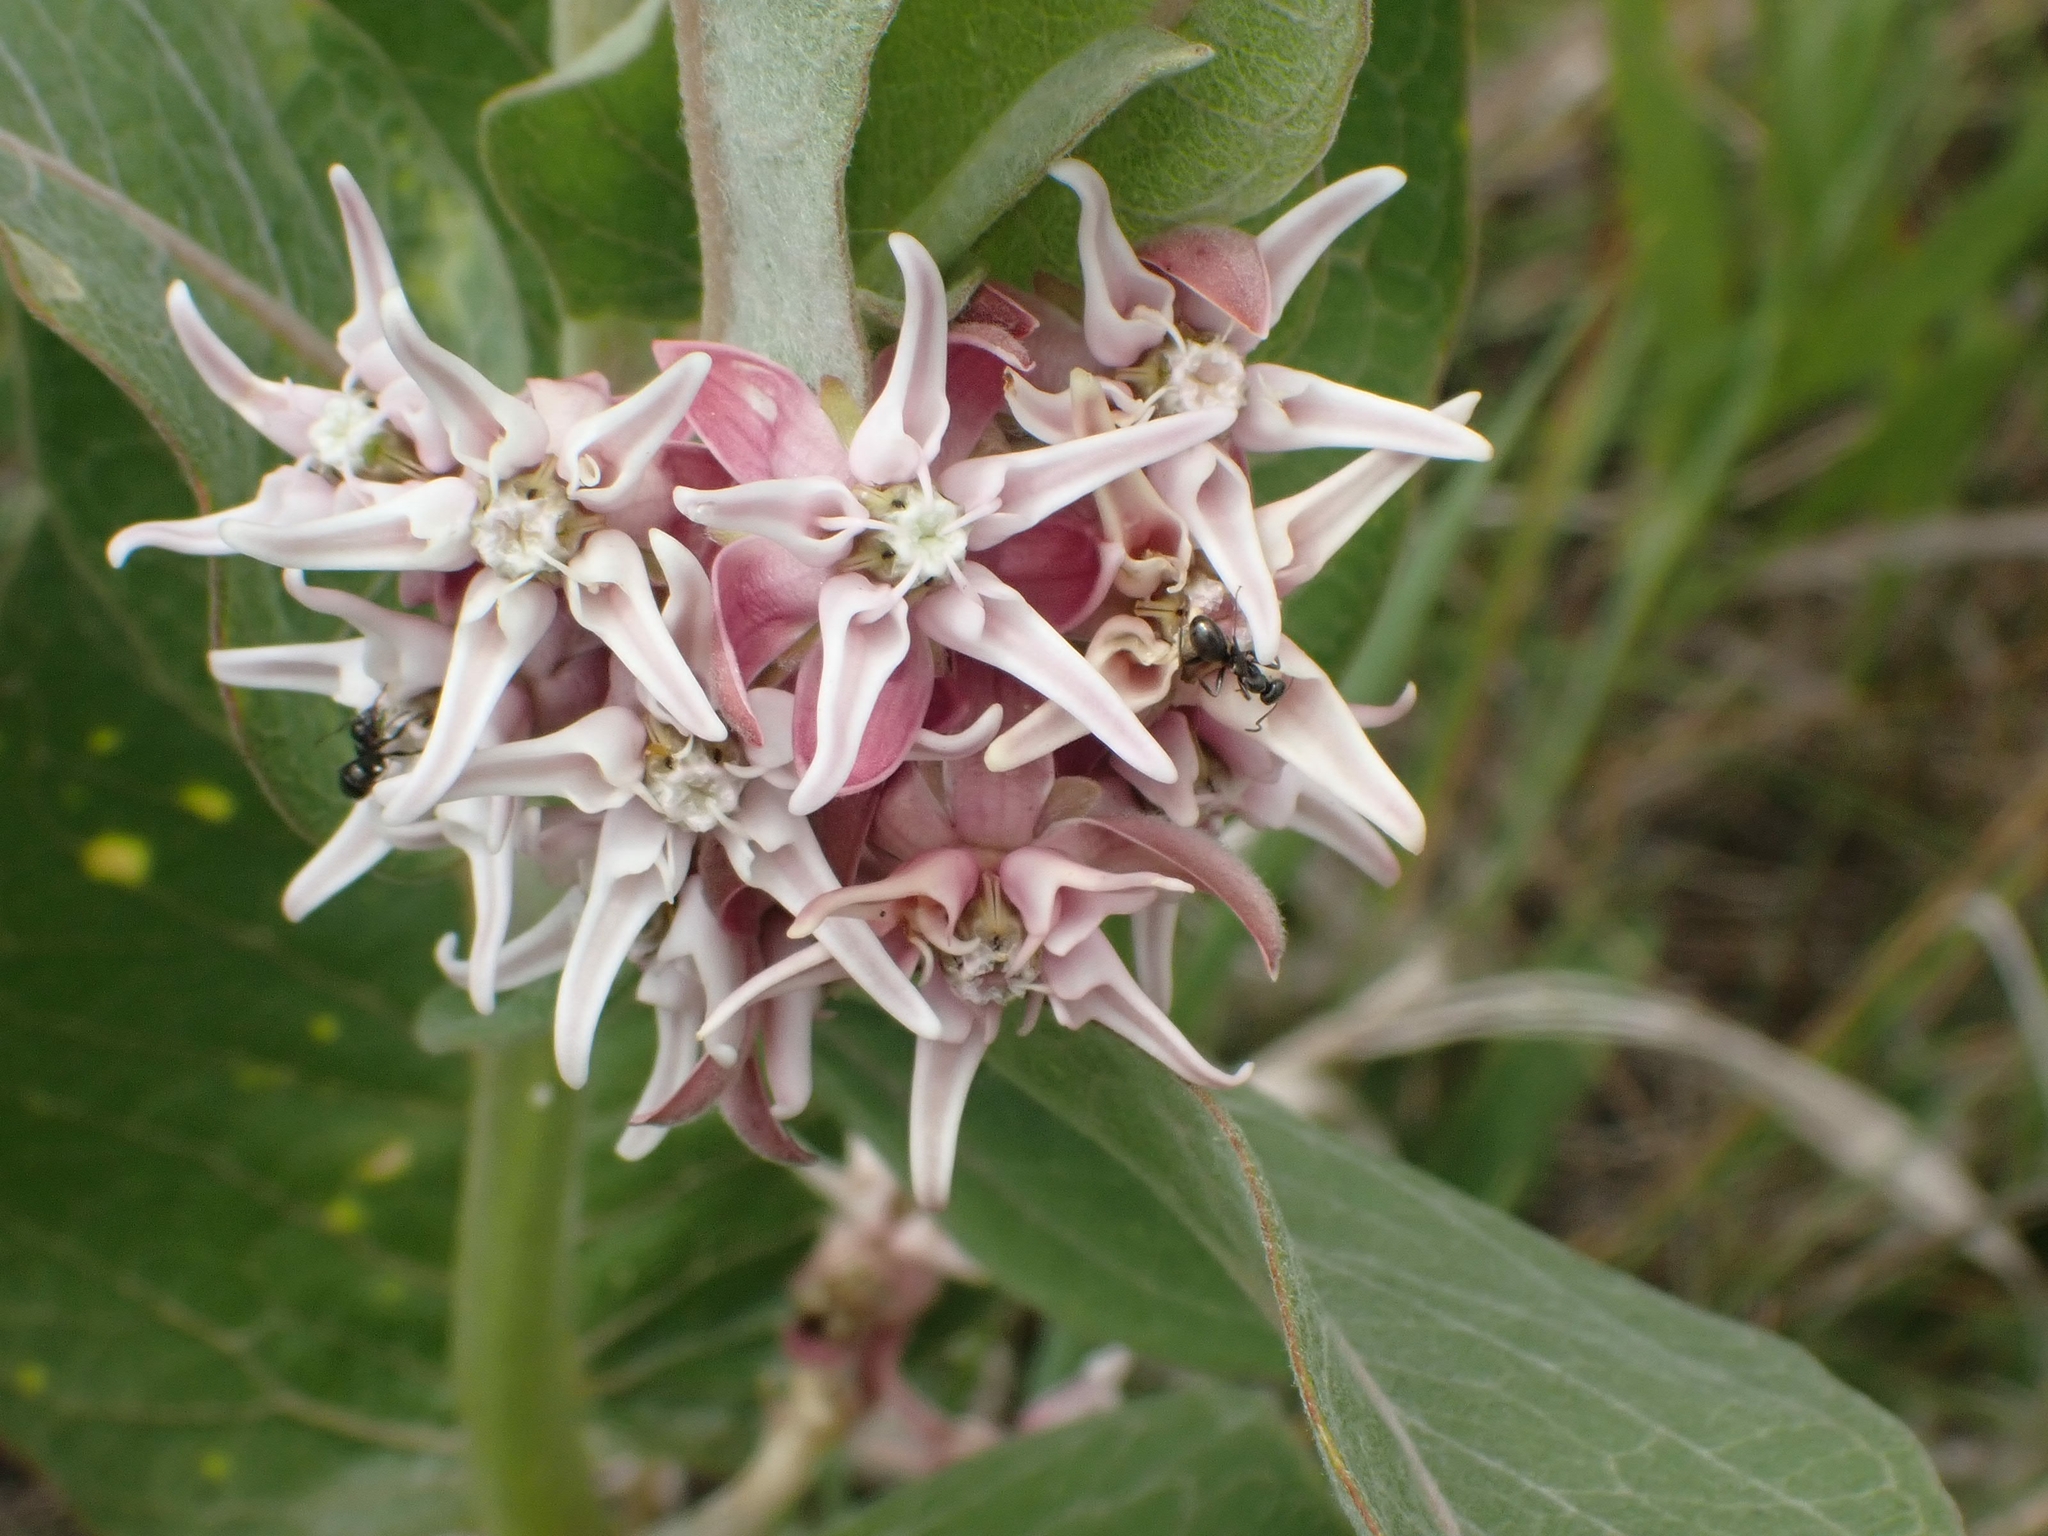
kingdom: Plantae
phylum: Tracheophyta
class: Magnoliopsida
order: Gentianales
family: Apocynaceae
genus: Asclepias
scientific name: Asclepias speciosa
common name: Showy milkweed
